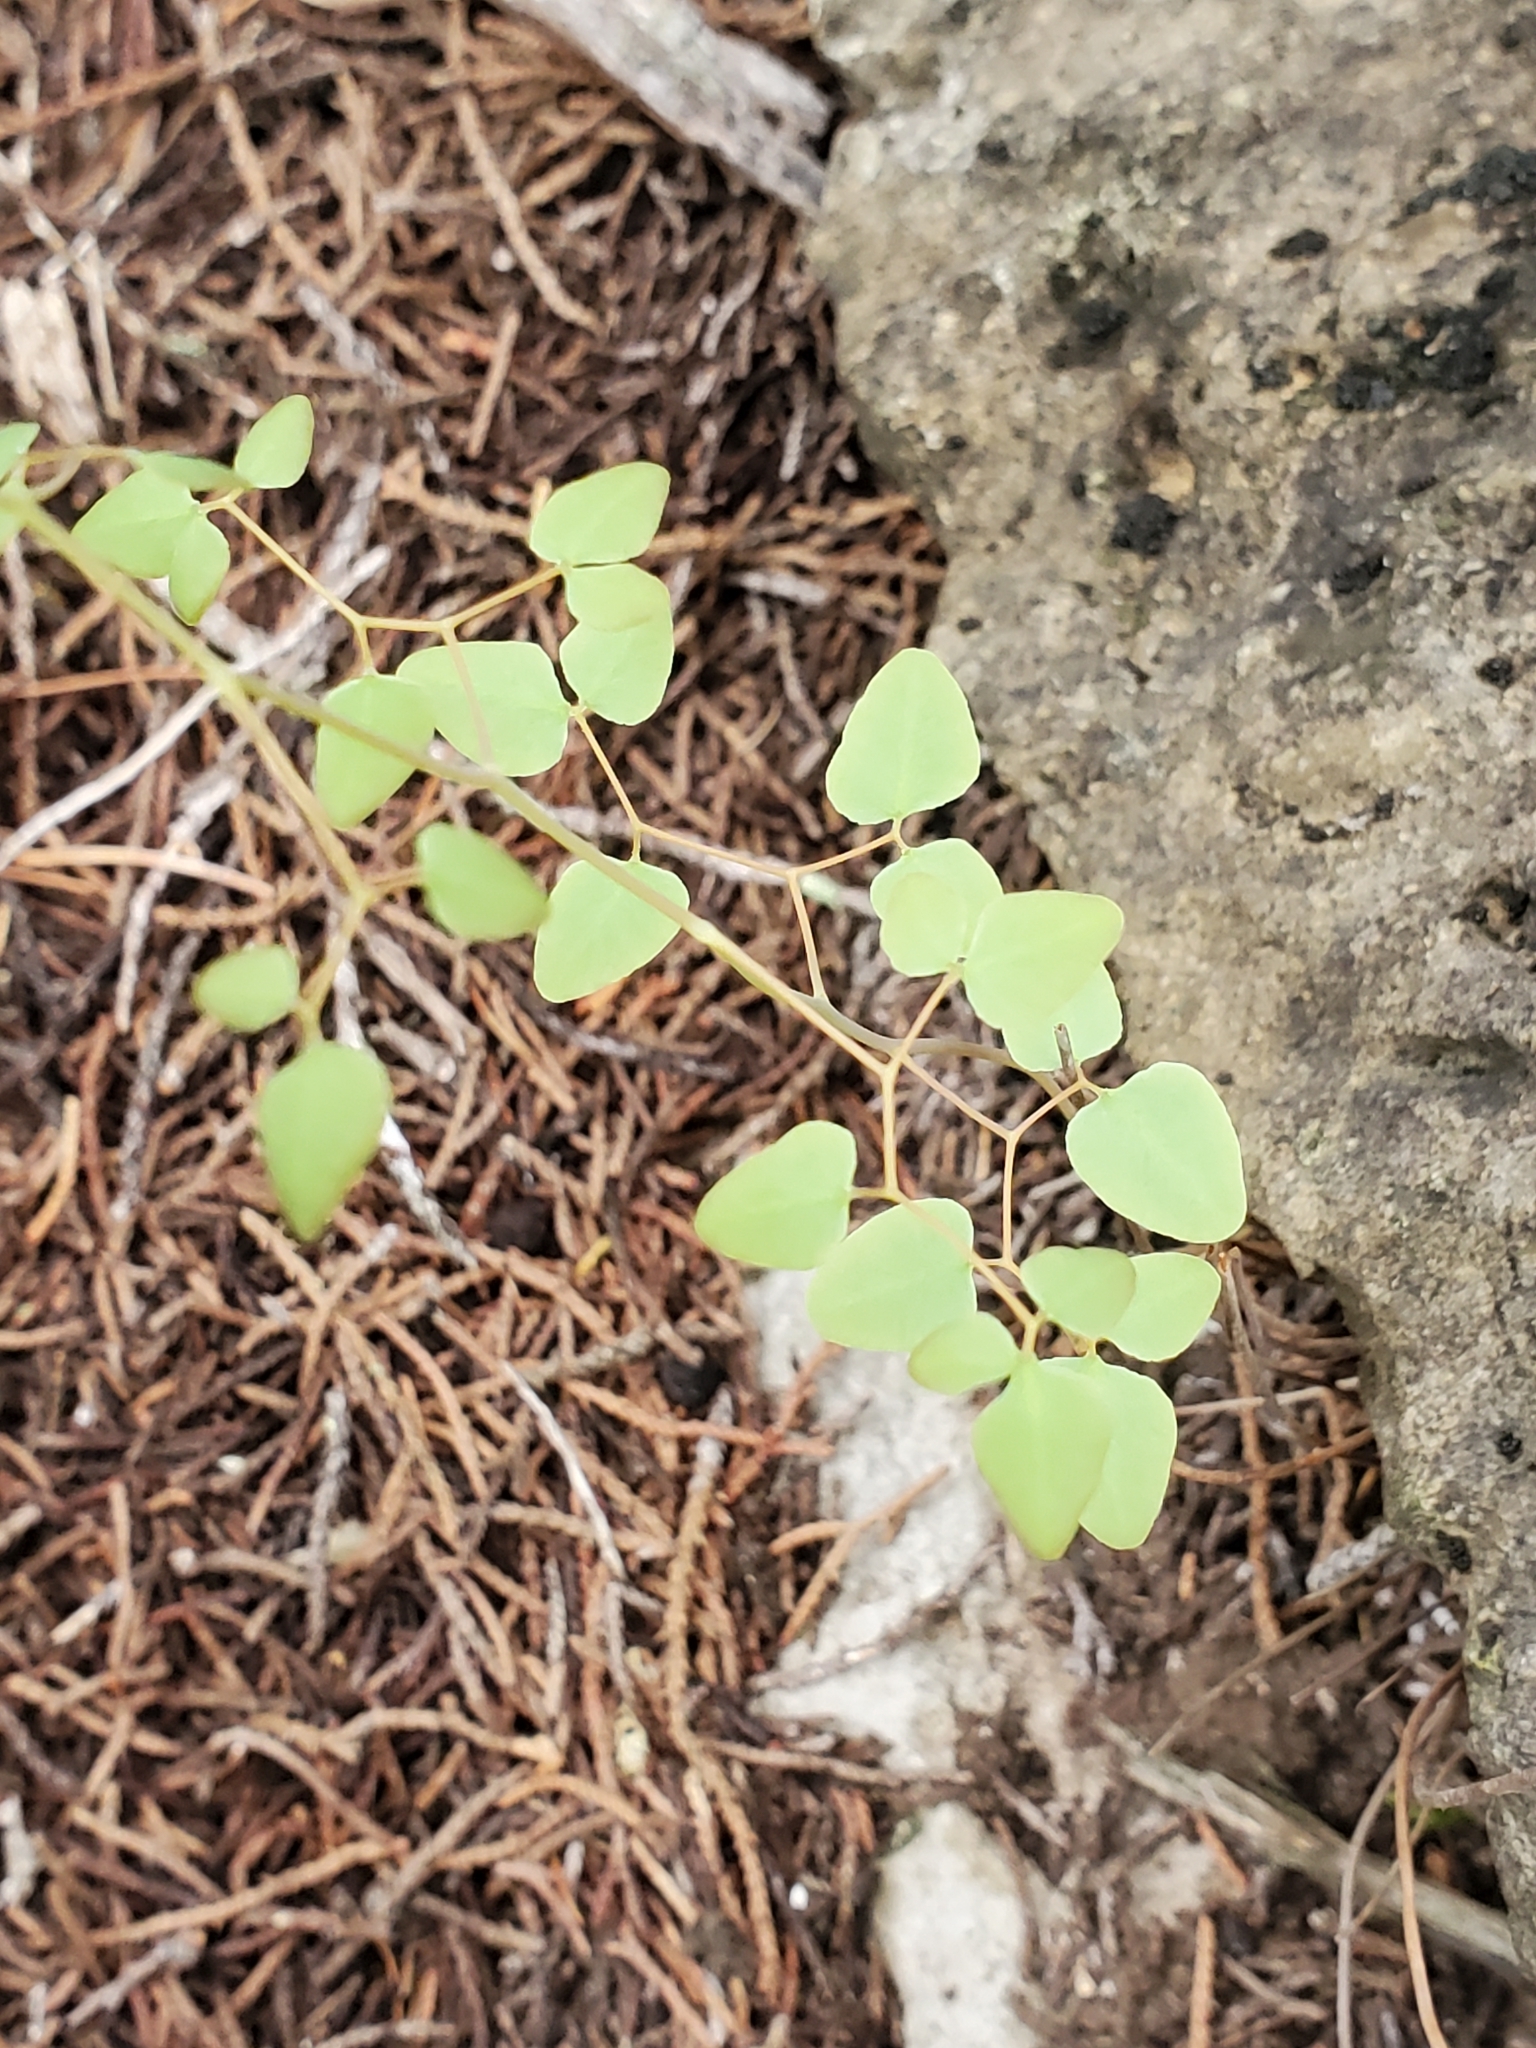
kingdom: Plantae
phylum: Tracheophyta
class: Polypodiopsida
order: Polypodiales
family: Pteridaceae
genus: Pellaea
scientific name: Pellaea ovata
